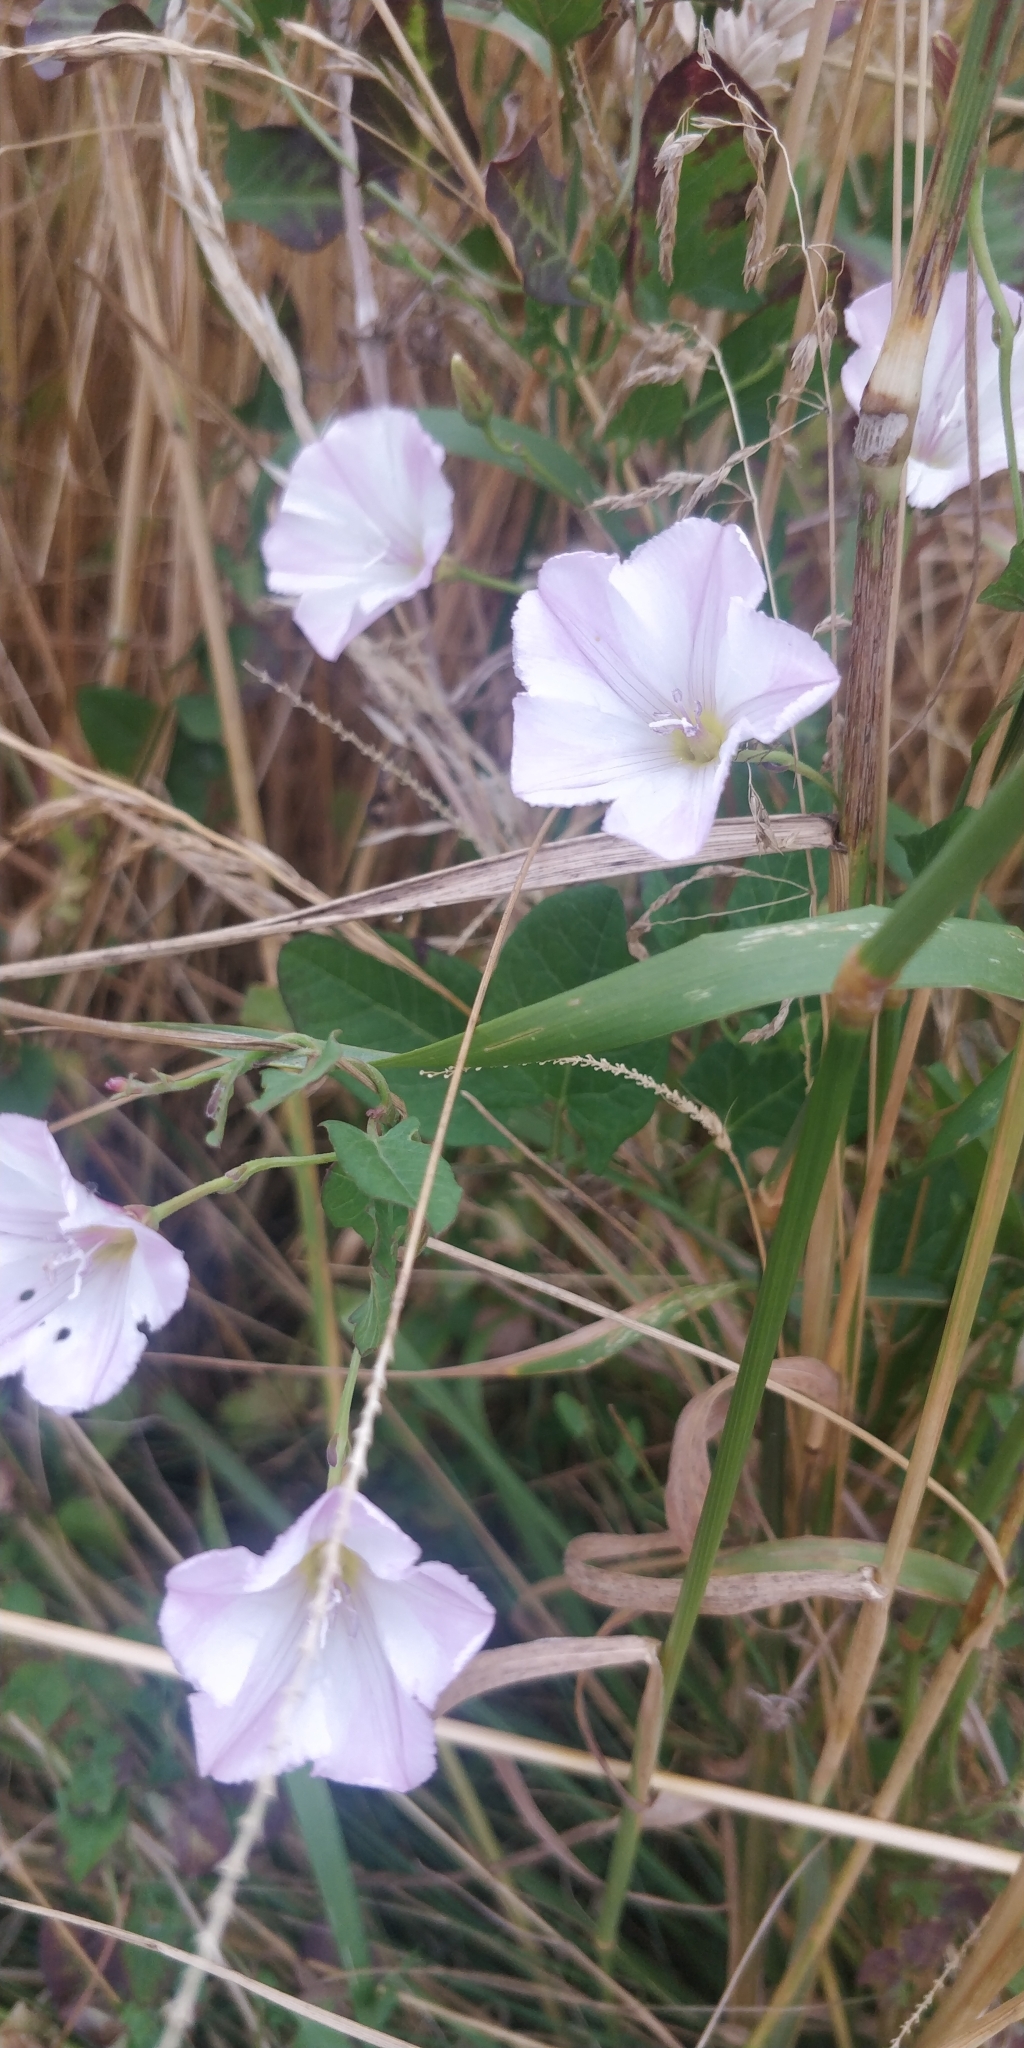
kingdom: Plantae
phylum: Tracheophyta
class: Magnoliopsida
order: Solanales
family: Convolvulaceae
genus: Convolvulus
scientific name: Convolvulus arvensis
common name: Field bindweed
